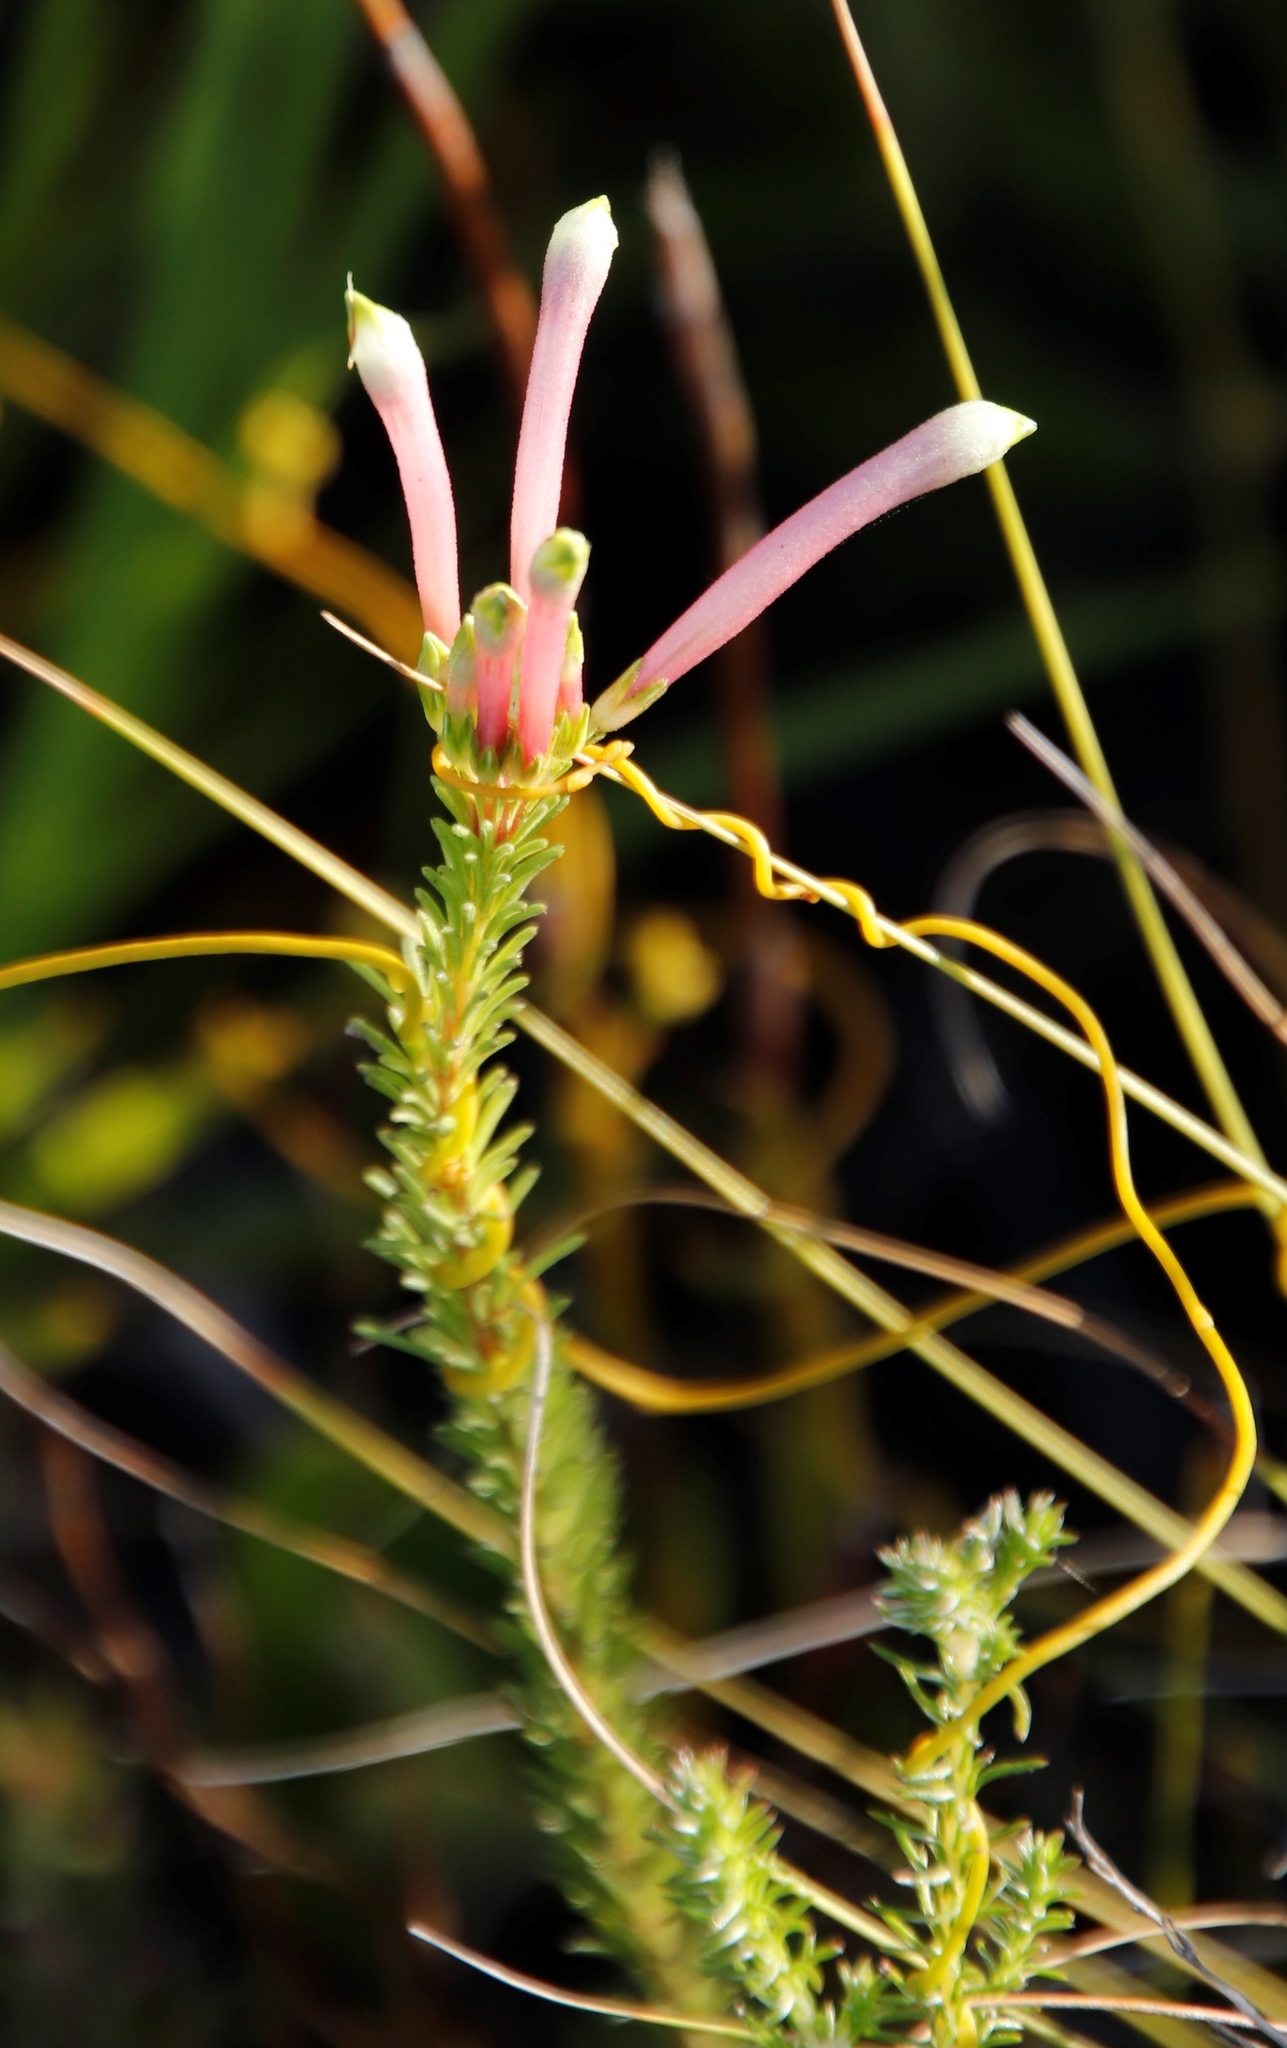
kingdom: Plantae
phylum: Tracheophyta
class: Magnoliopsida
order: Ericales
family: Ericaceae
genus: Erica
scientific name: Erica fascicularis
